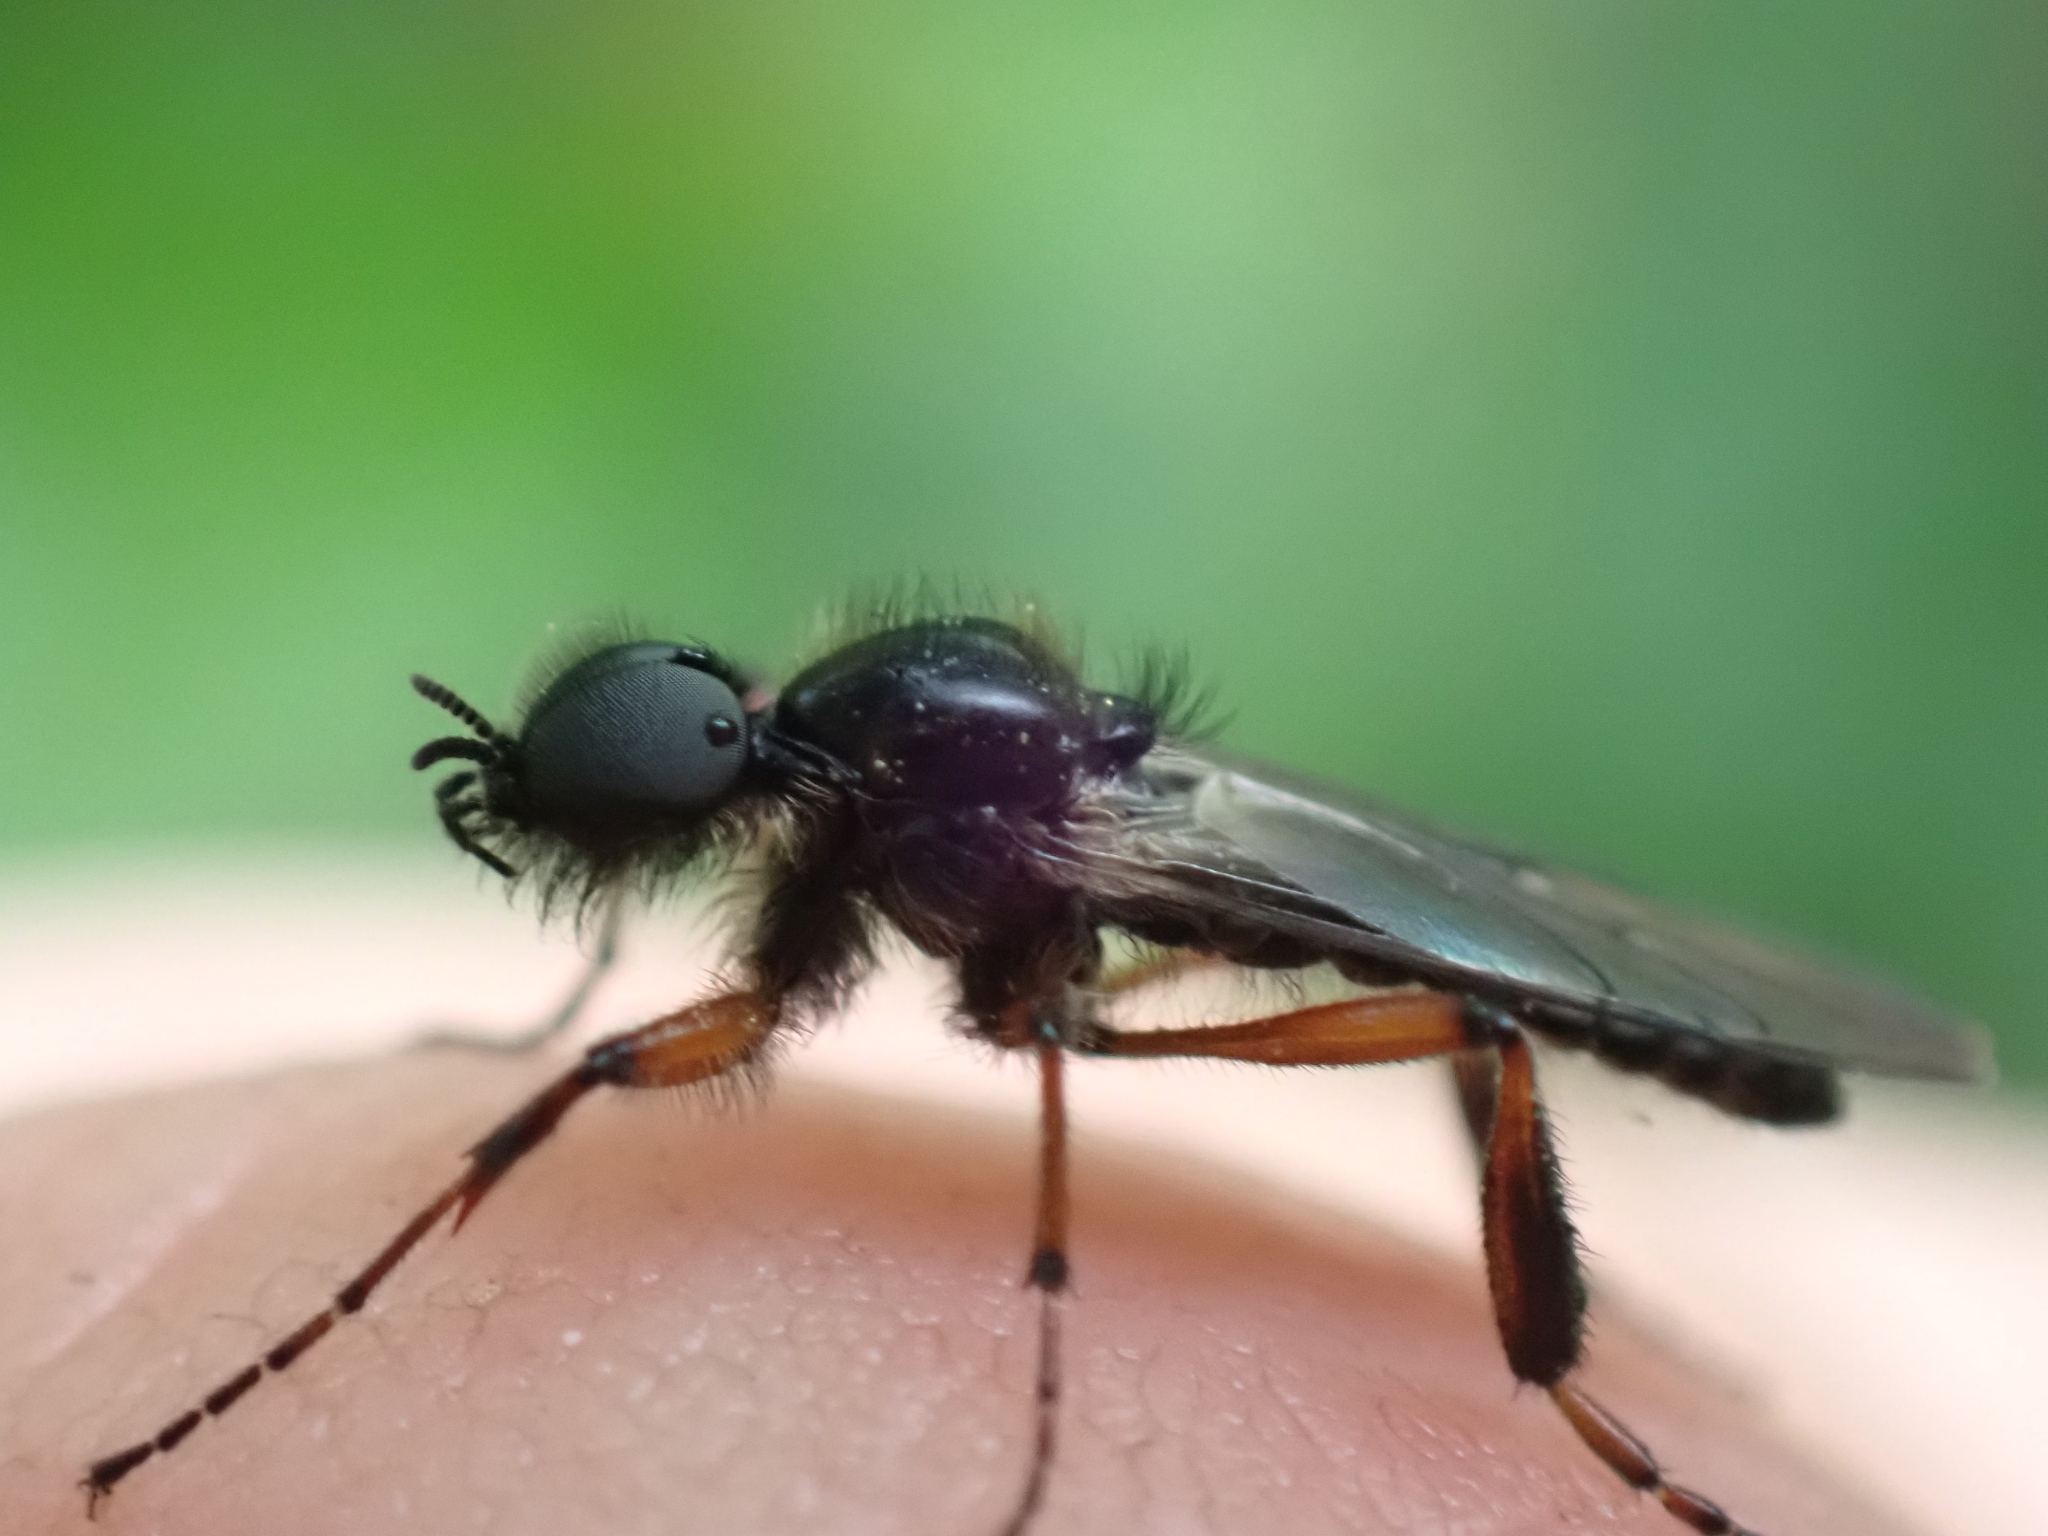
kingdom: Animalia
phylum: Arthropoda
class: Insecta
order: Diptera
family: Bibionidae
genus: Bibio
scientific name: Bibio xanthopus
